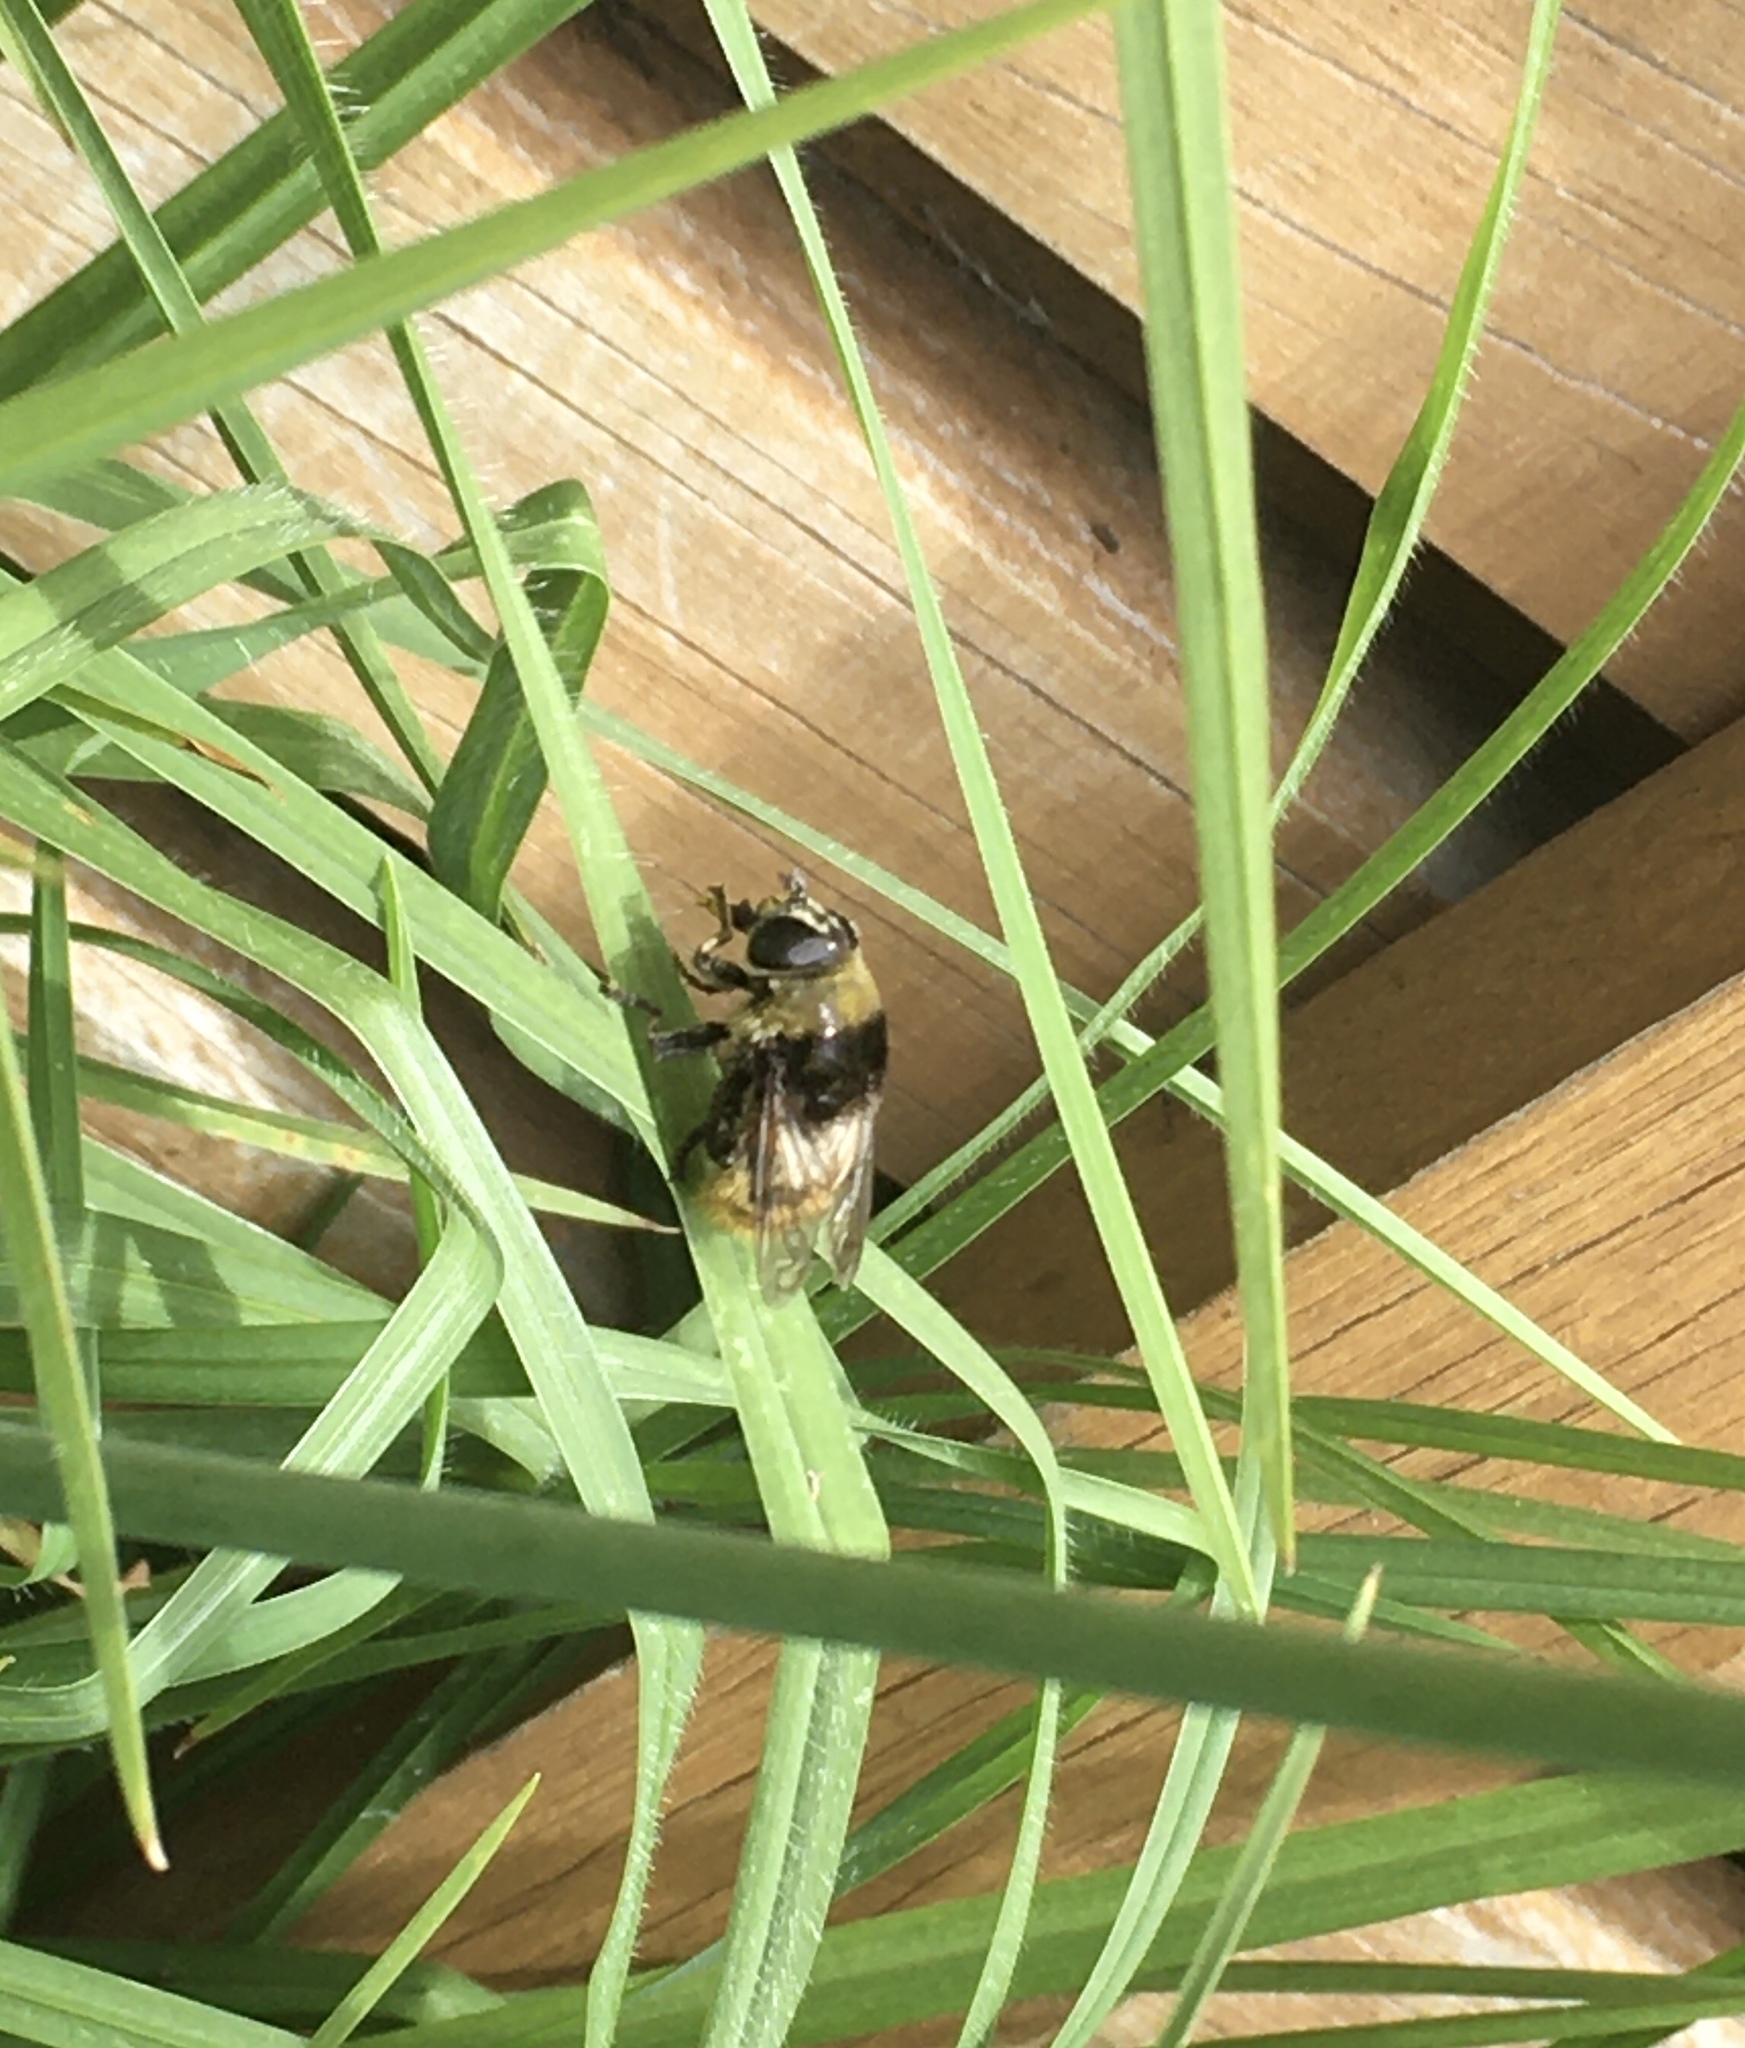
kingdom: Animalia
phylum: Arthropoda
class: Insecta
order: Diptera
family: Syrphidae
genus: Merodon
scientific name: Merodon equestris
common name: Greater bulb-fly
